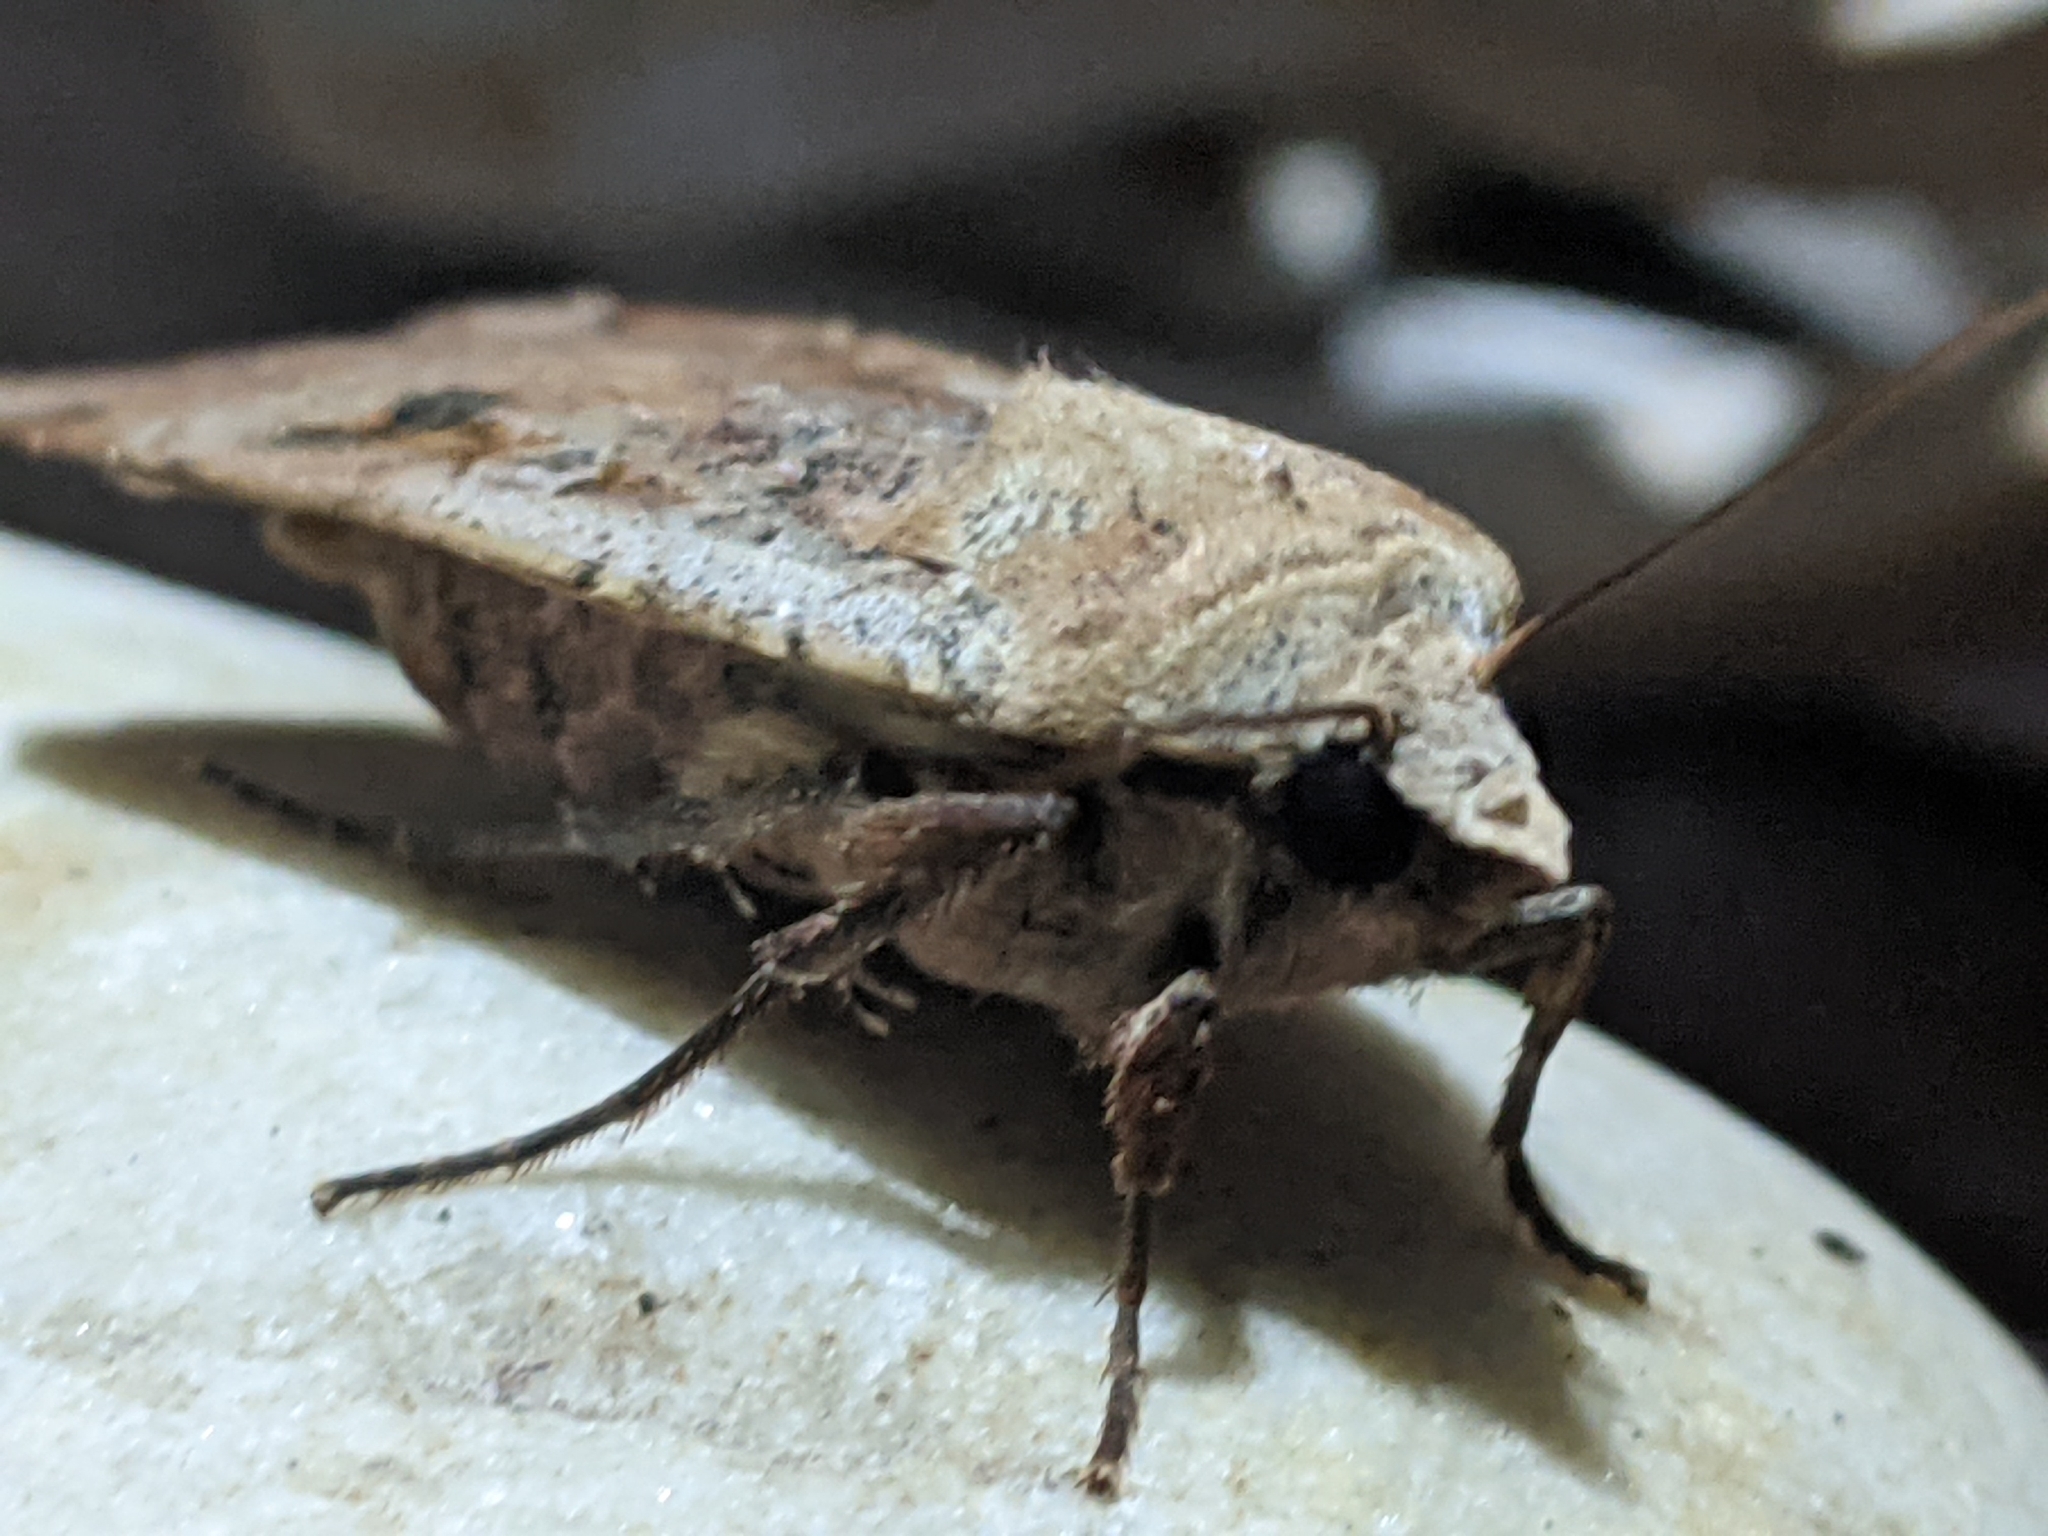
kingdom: Animalia
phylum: Arthropoda
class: Insecta
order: Lepidoptera
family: Noctuidae
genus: Xestia
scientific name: Xestia smithii
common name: Smith's dart
